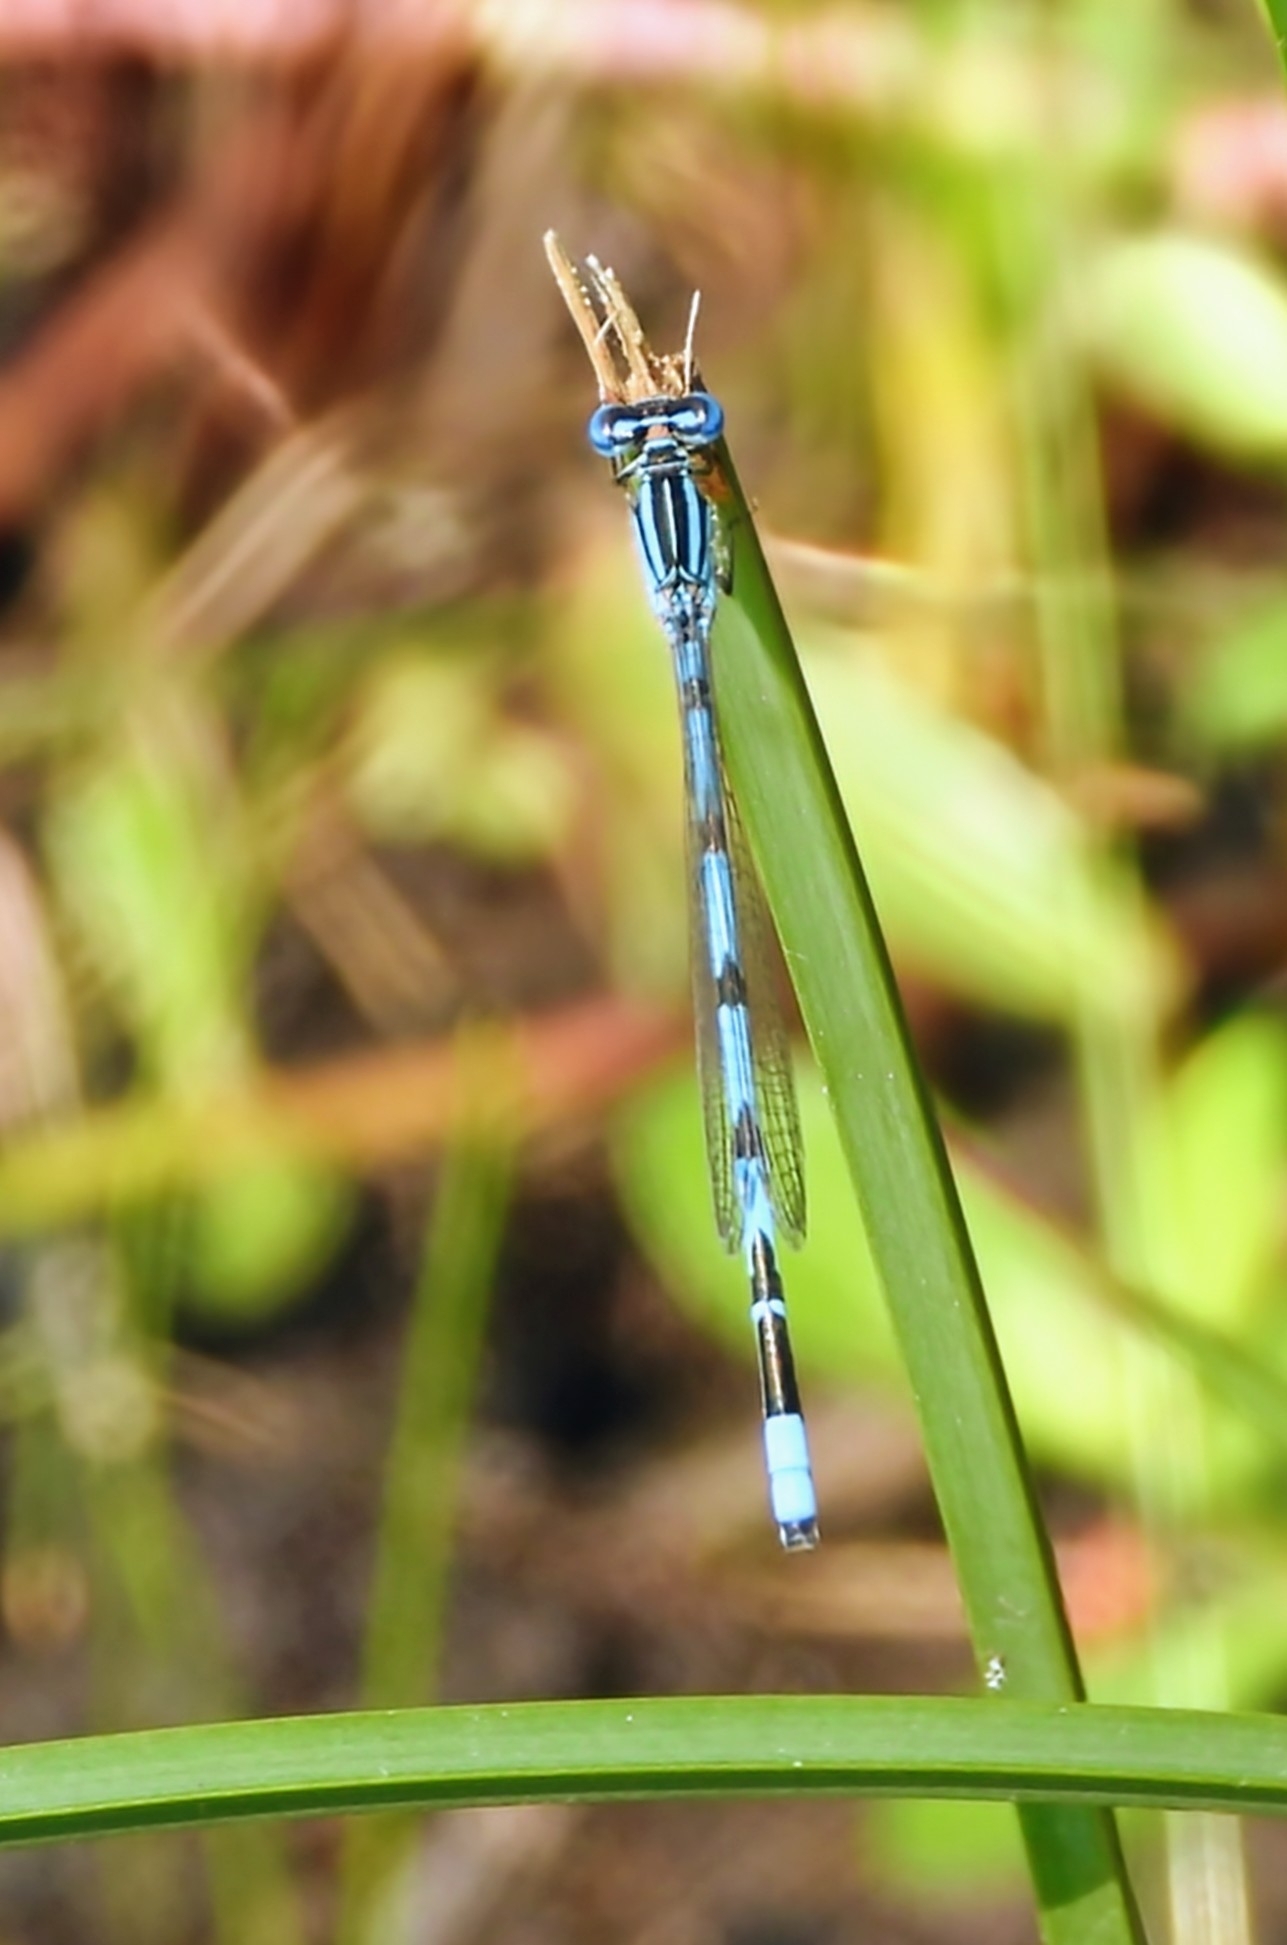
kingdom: Animalia
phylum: Arthropoda
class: Insecta
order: Odonata
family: Coenagrionidae
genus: Enallagma
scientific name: Enallagma durum
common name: Big bluet
